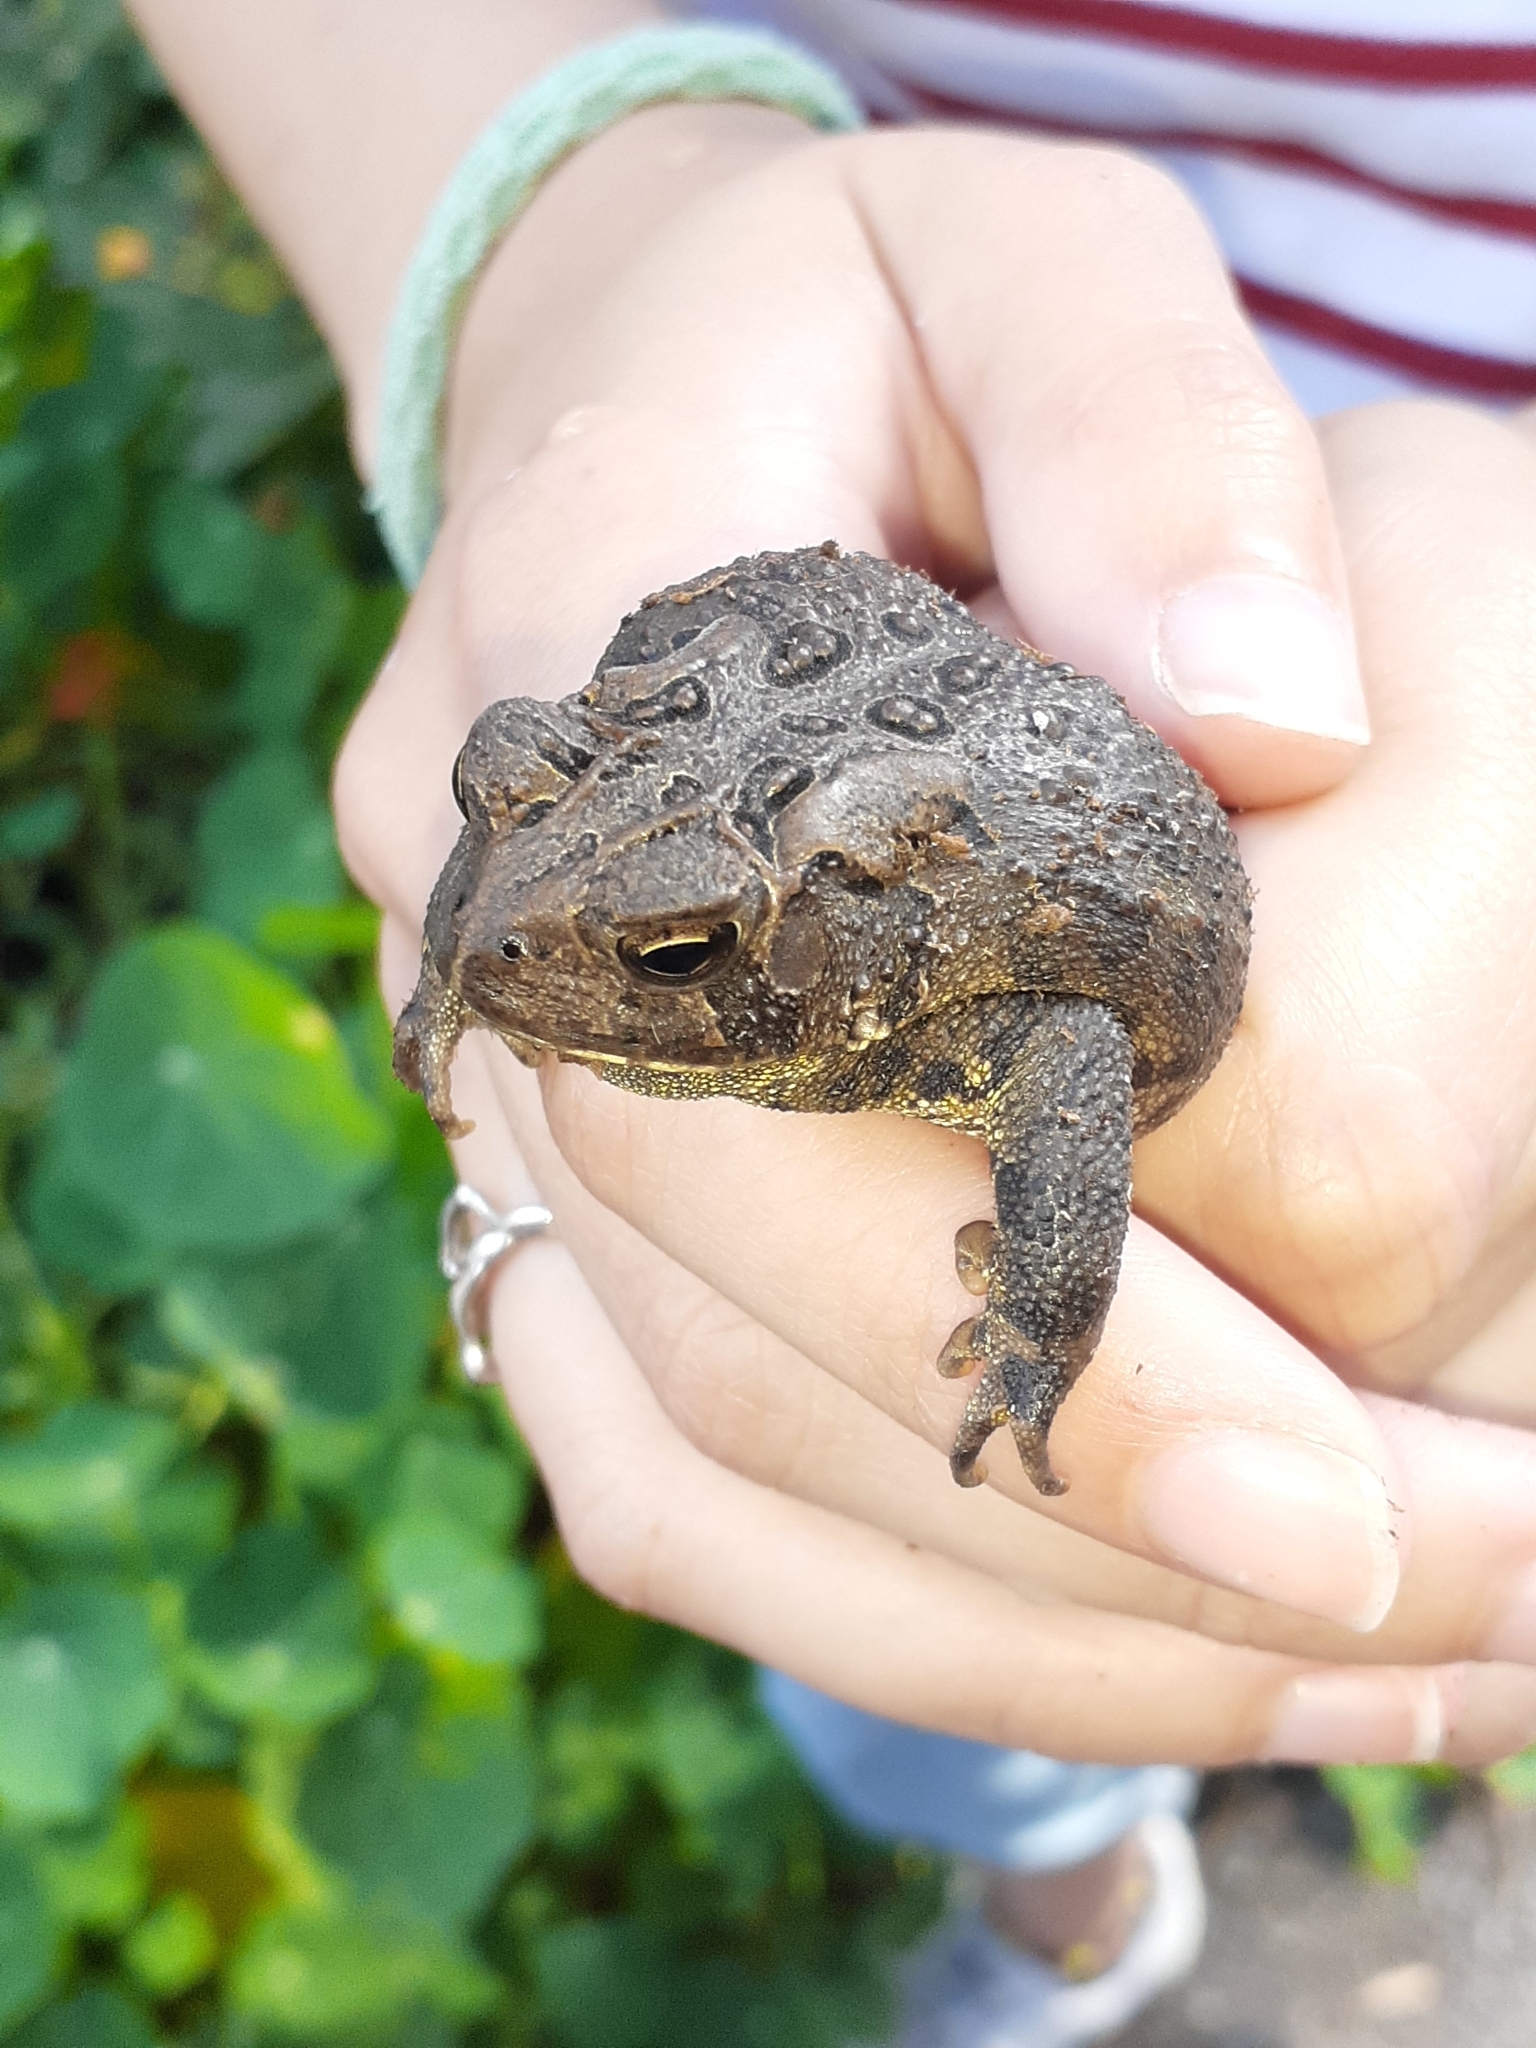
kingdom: Animalia
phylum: Chordata
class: Amphibia
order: Anura
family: Bufonidae
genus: Anaxyrus
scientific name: Anaxyrus americanus
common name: American toad
